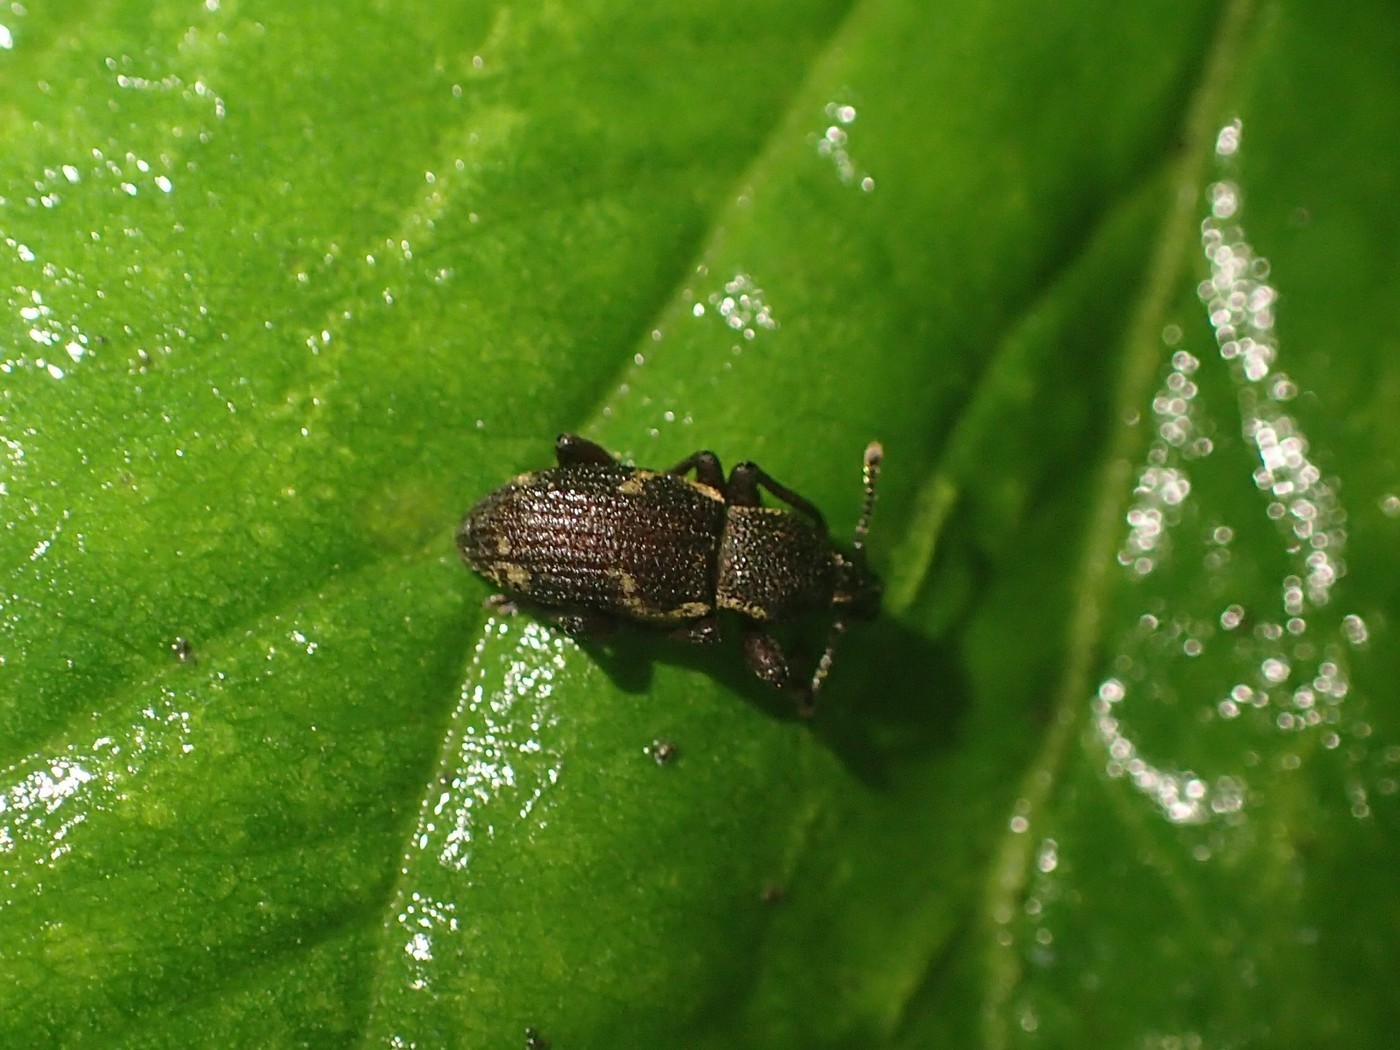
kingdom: Animalia
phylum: Arthropoda
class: Insecta
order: Coleoptera
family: Curculionidae
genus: Hormorus
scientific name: Hormorus undulatus
